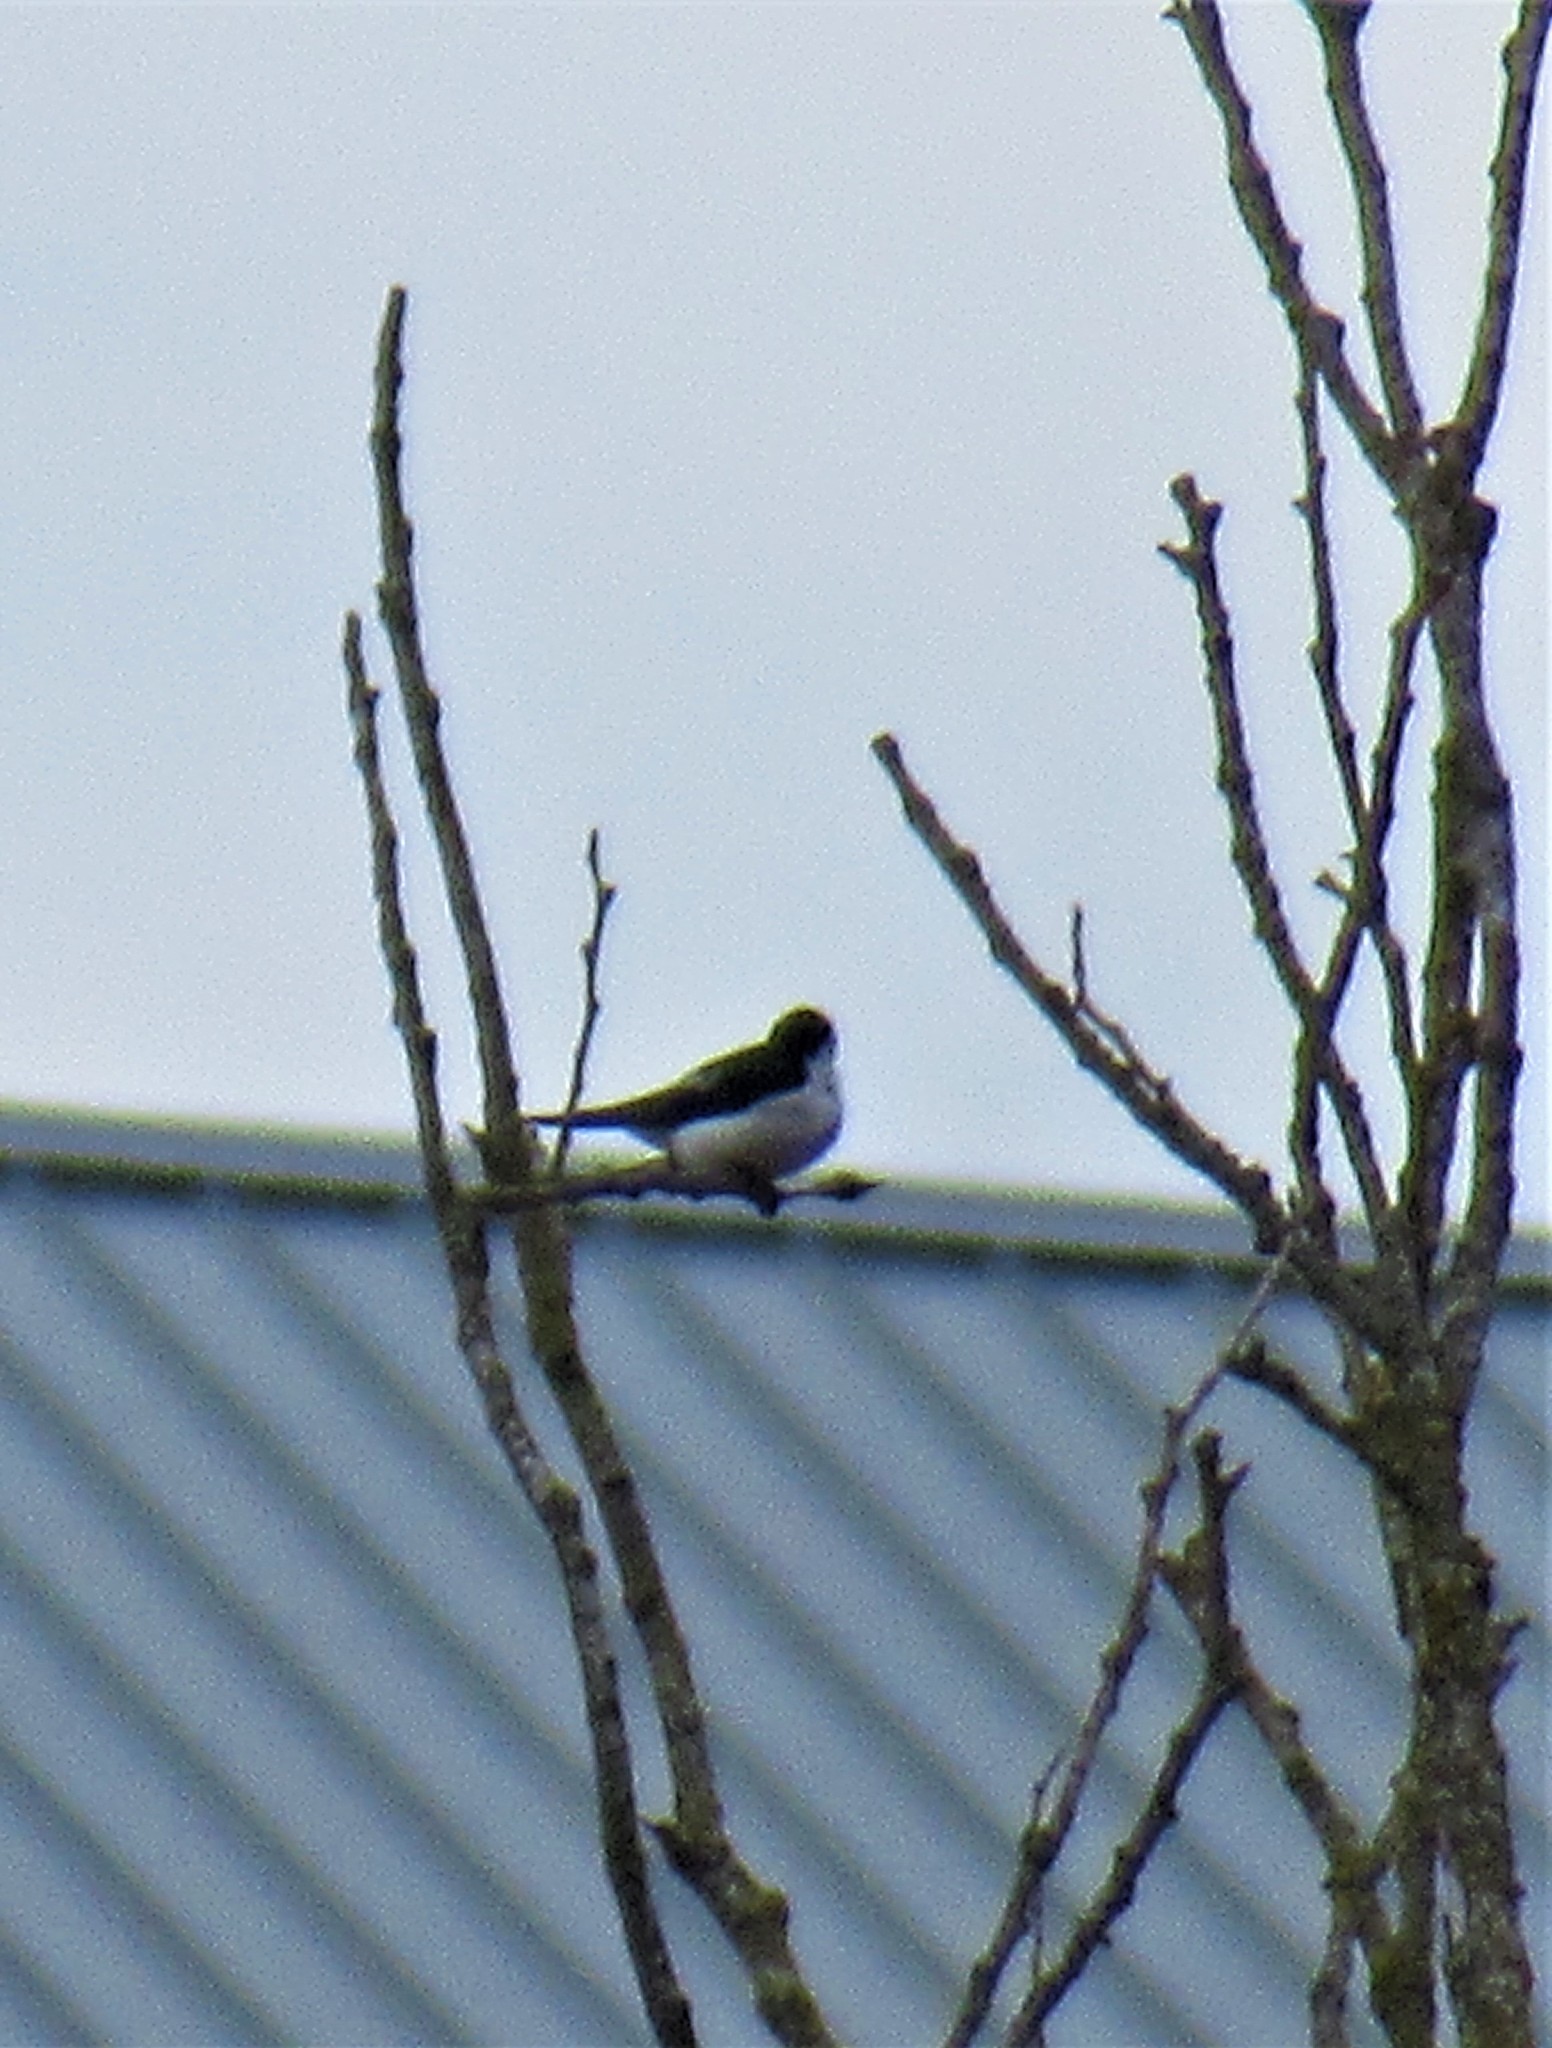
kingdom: Animalia
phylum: Chordata
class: Aves
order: Passeriformes
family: Hirundinidae
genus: Tachycineta
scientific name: Tachycineta thalassina
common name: Violet-green swallow
